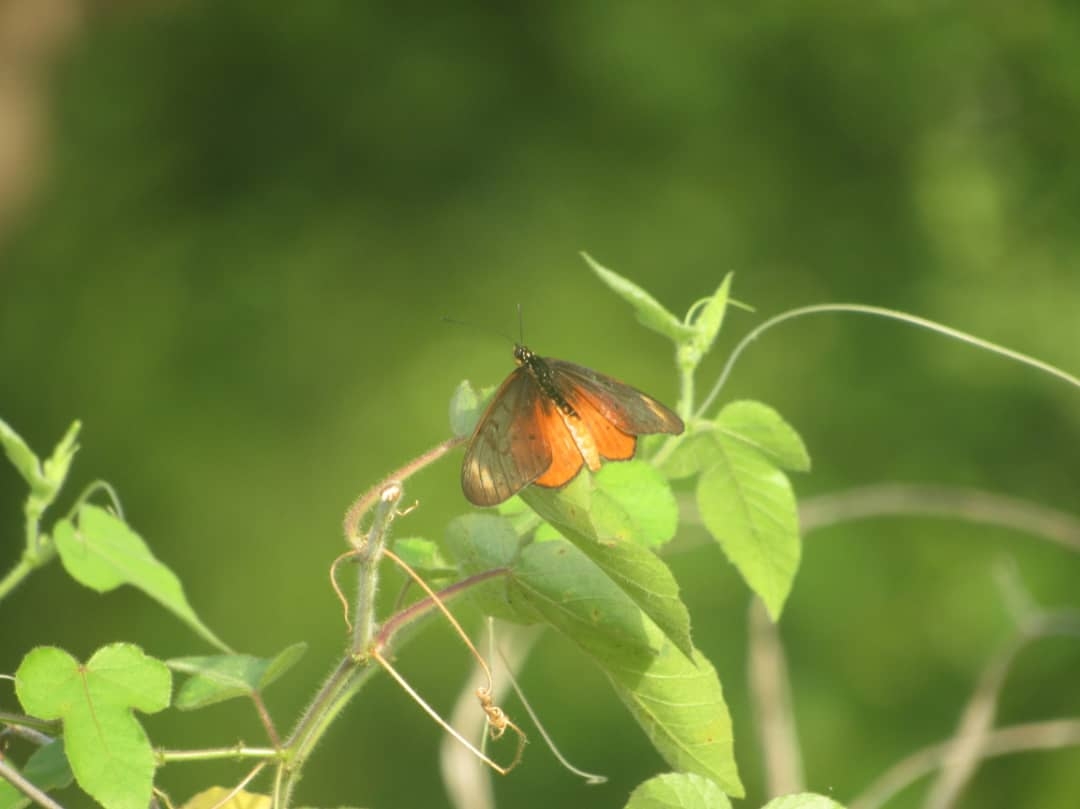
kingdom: Animalia
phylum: Arthropoda
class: Insecta
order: Lepidoptera
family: Nymphalidae
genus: Stephenia
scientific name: Stephenia
